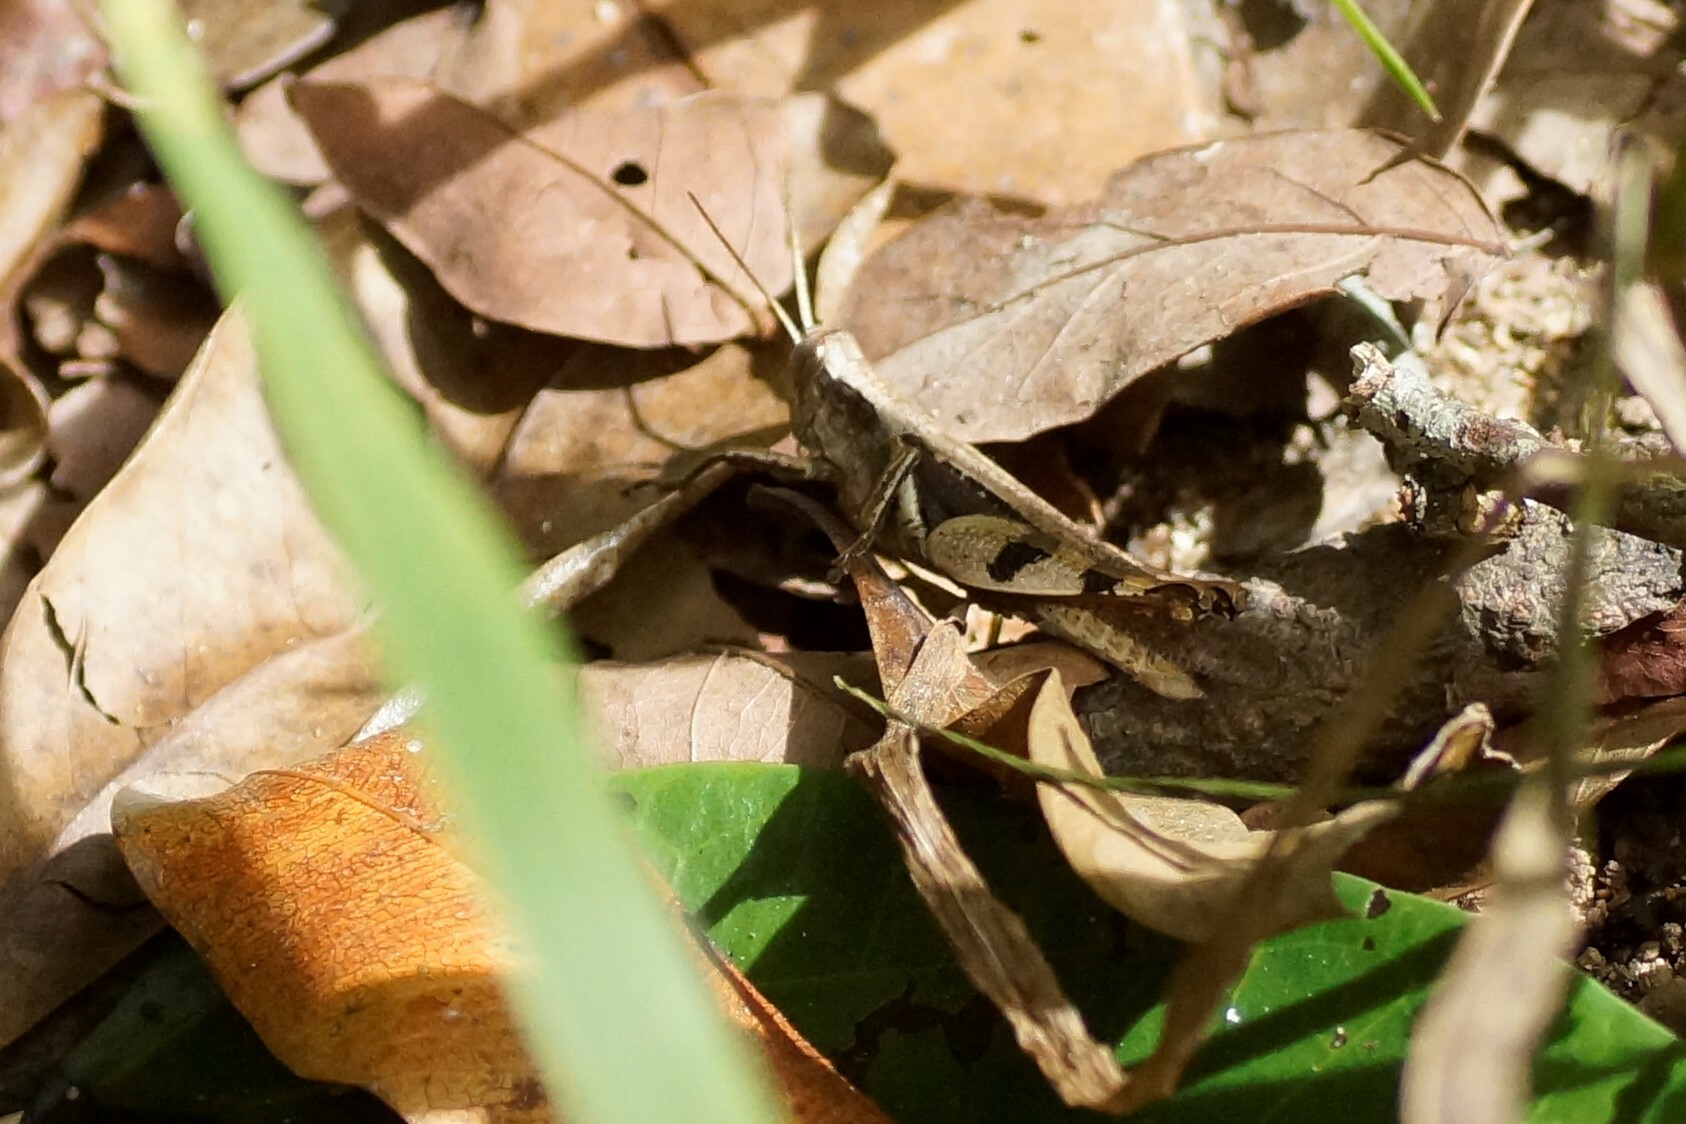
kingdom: Animalia
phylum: Arthropoda
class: Insecta
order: Orthoptera
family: Acrididae
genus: Stenocatantops
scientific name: Stenocatantops angustifrons
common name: Common tropical sharptail
